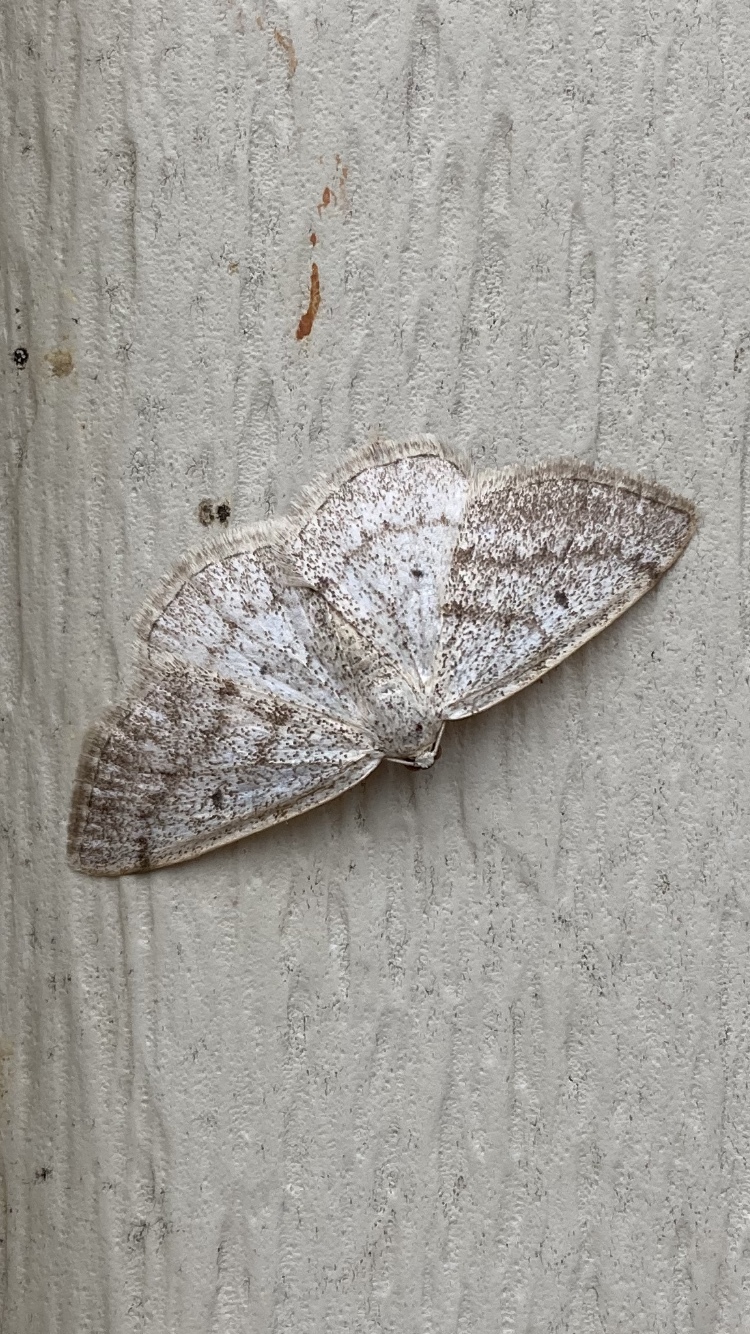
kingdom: Animalia
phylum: Arthropoda
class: Insecta
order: Lepidoptera
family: Geometridae
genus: Lomographa
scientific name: Lomographa glomeraria
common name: Gray spring moth
